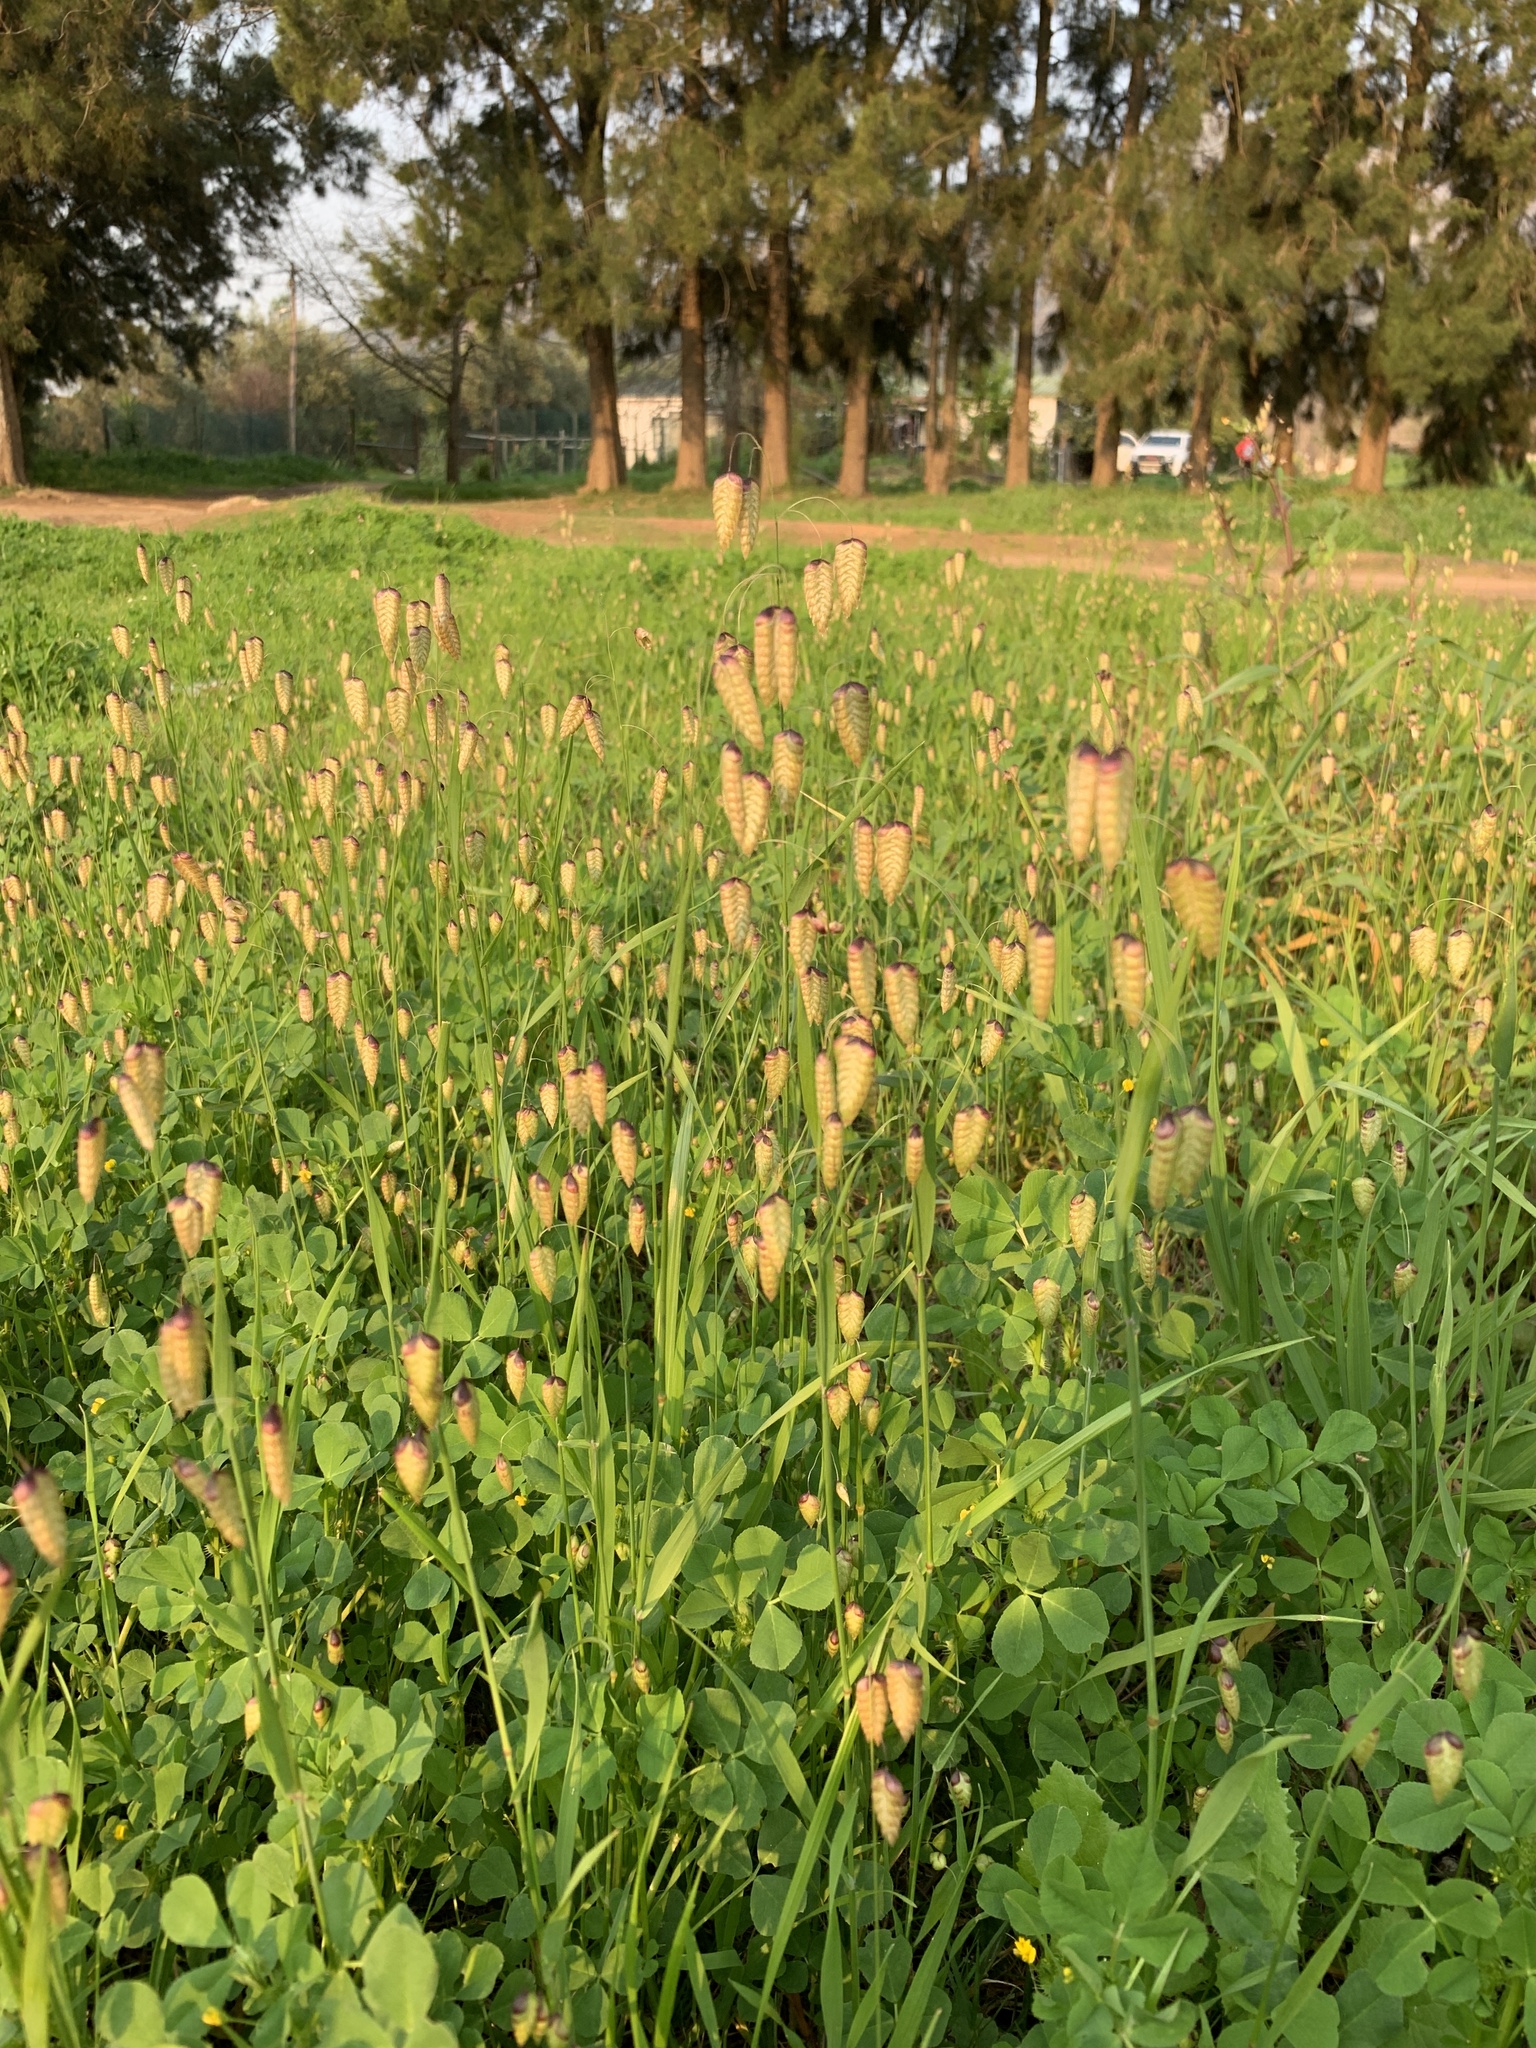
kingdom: Plantae
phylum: Tracheophyta
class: Liliopsida
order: Poales
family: Poaceae
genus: Briza
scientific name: Briza maxima
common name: Big quakinggrass
